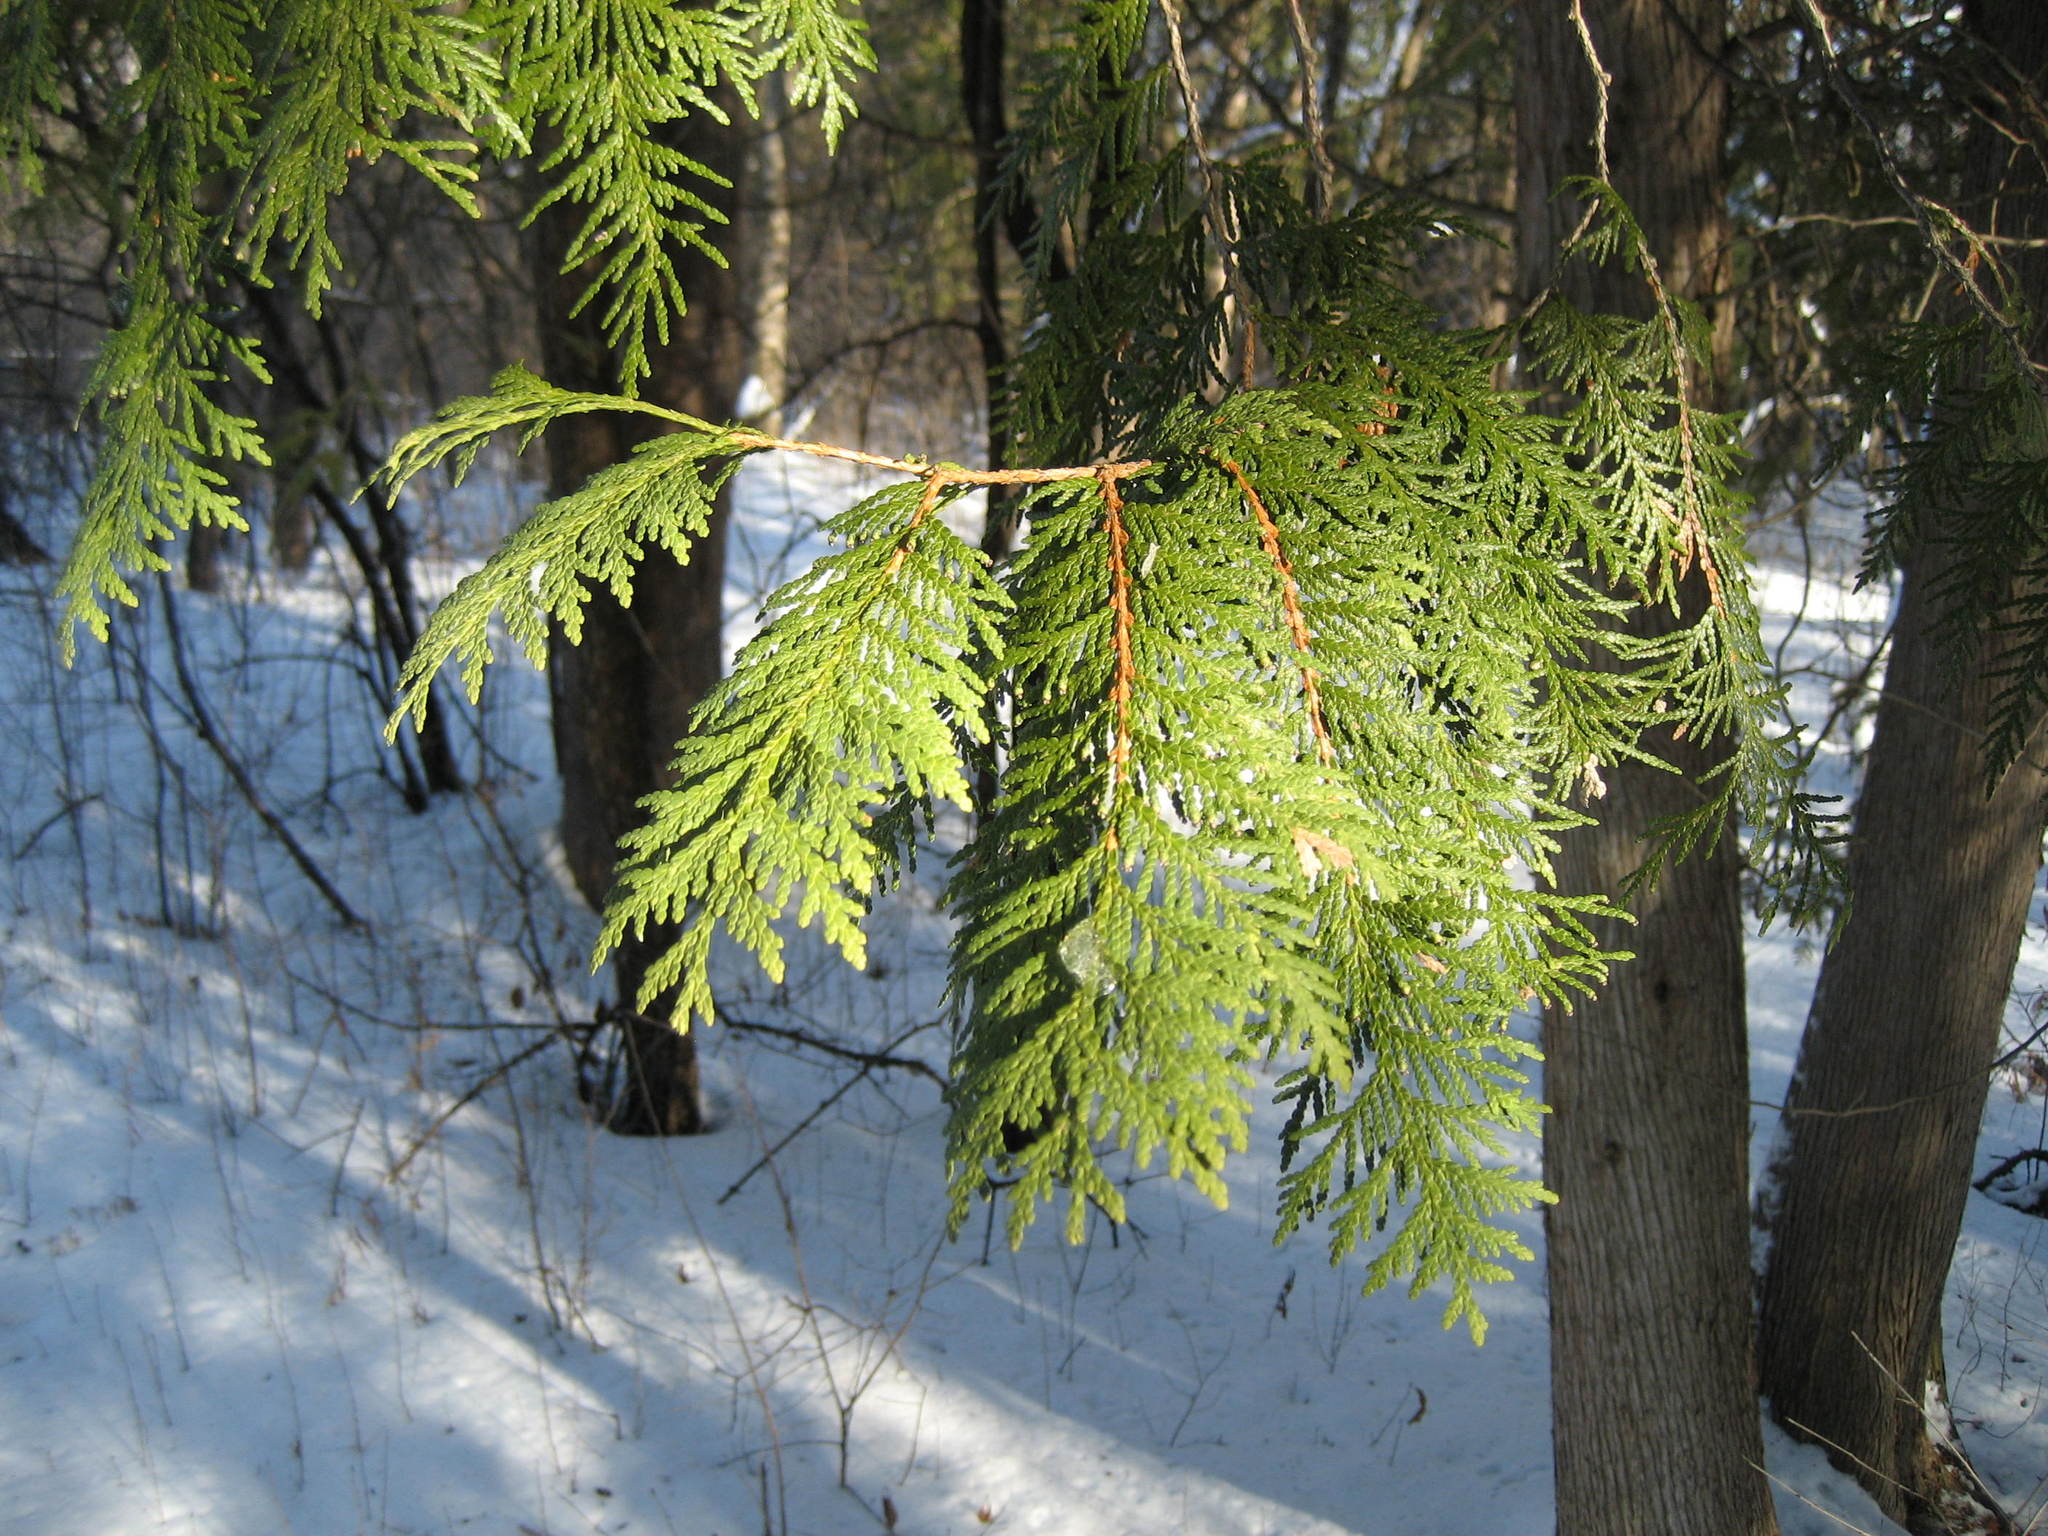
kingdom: Plantae
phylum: Tracheophyta
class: Pinopsida
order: Pinales
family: Cupressaceae
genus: Thuja
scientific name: Thuja occidentalis
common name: Northern white-cedar
